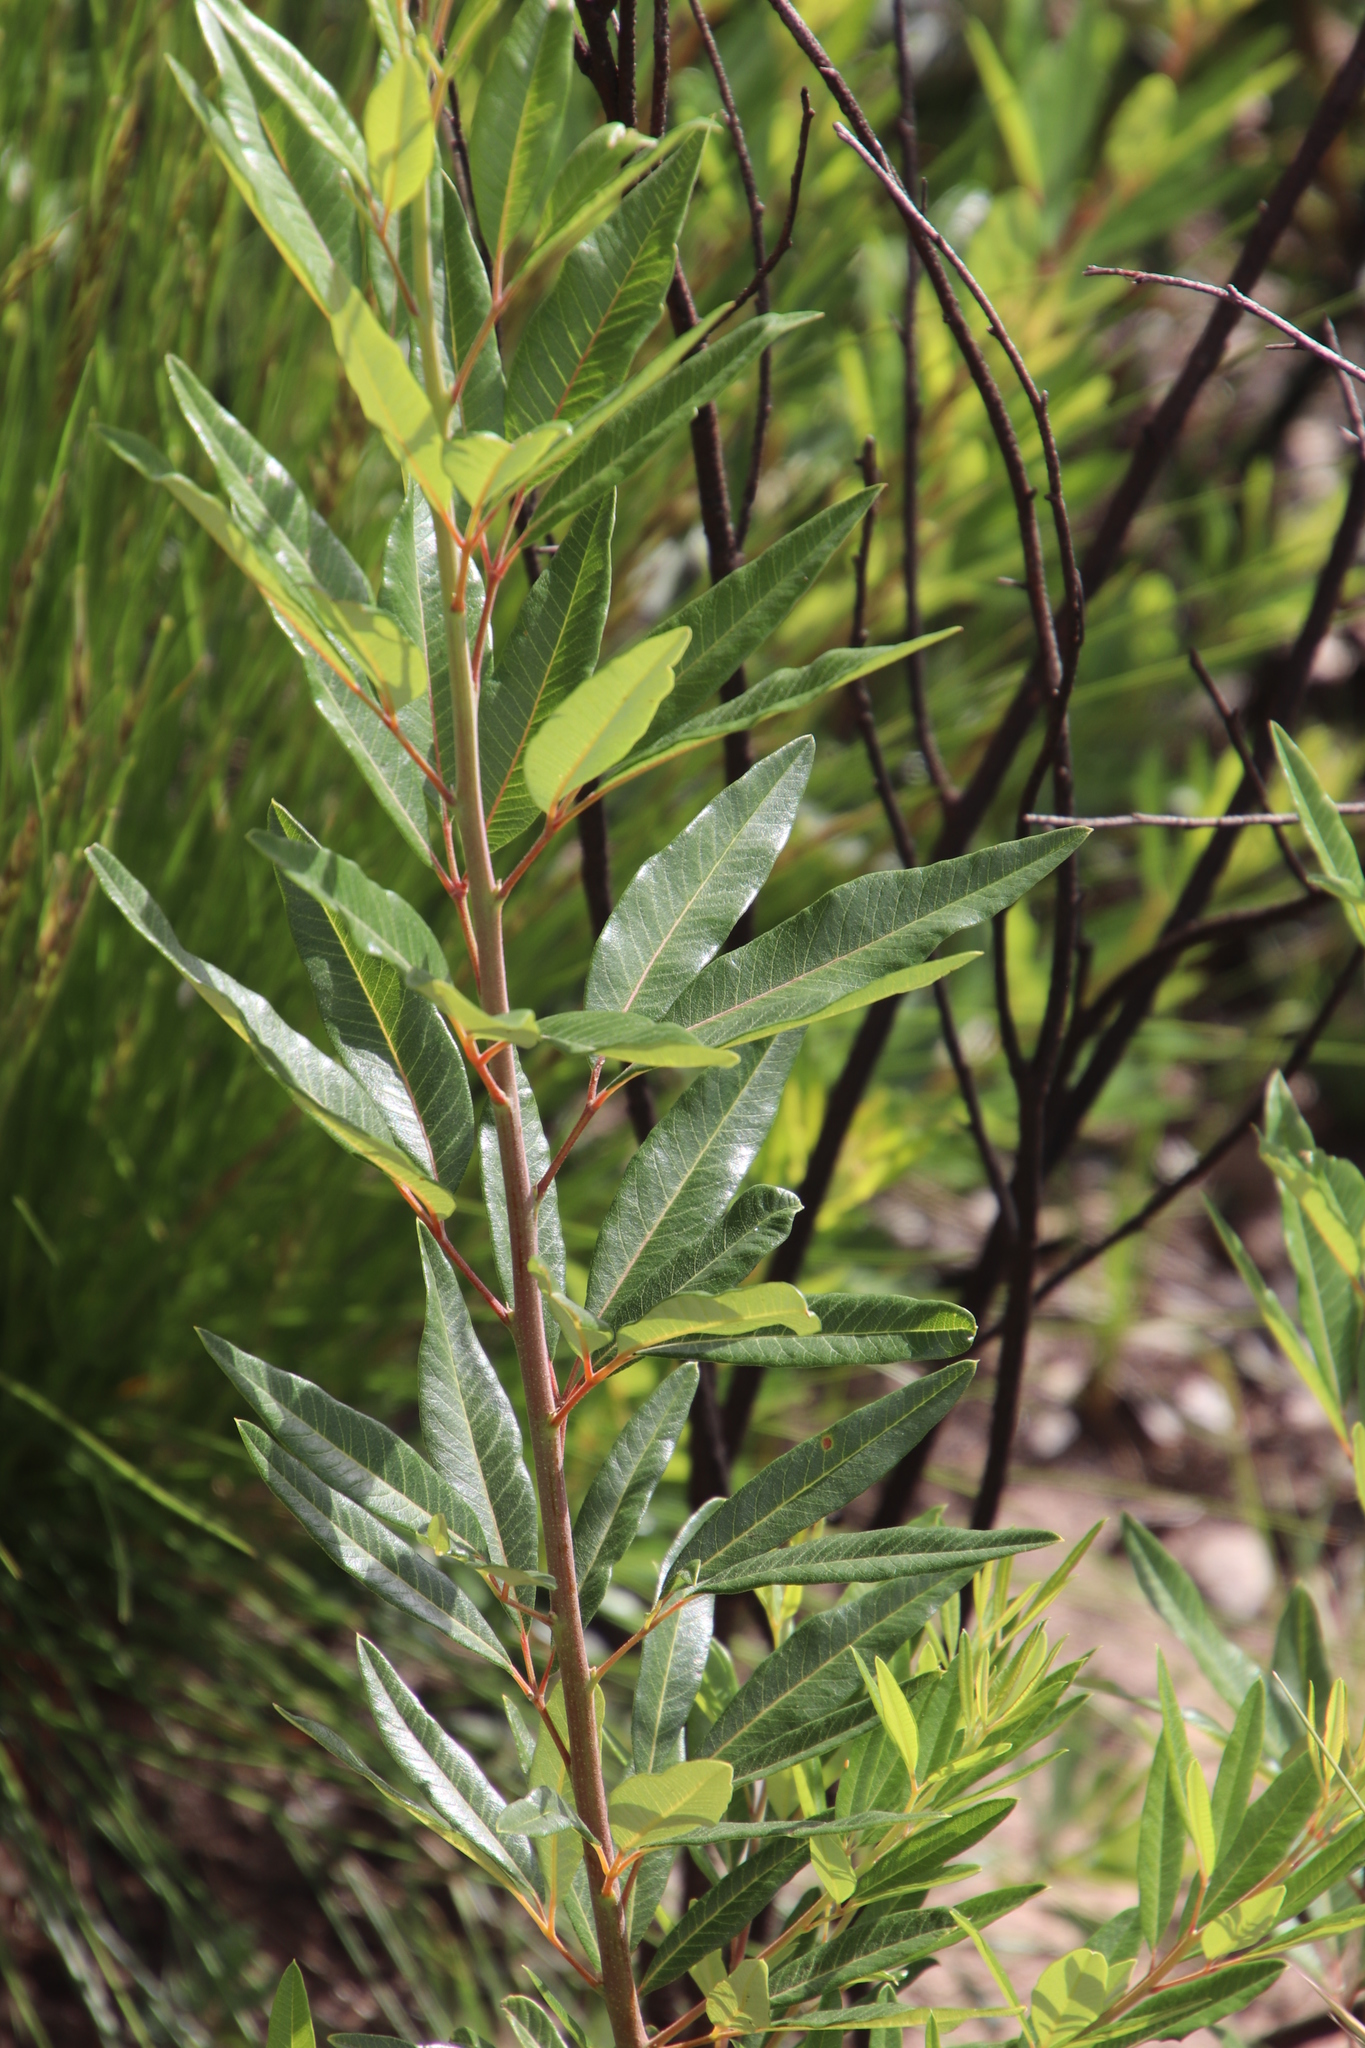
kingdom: Plantae
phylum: Tracheophyta
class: Magnoliopsida
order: Sapindales
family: Anacardiaceae
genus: Searsia
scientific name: Searsia angustifolia
